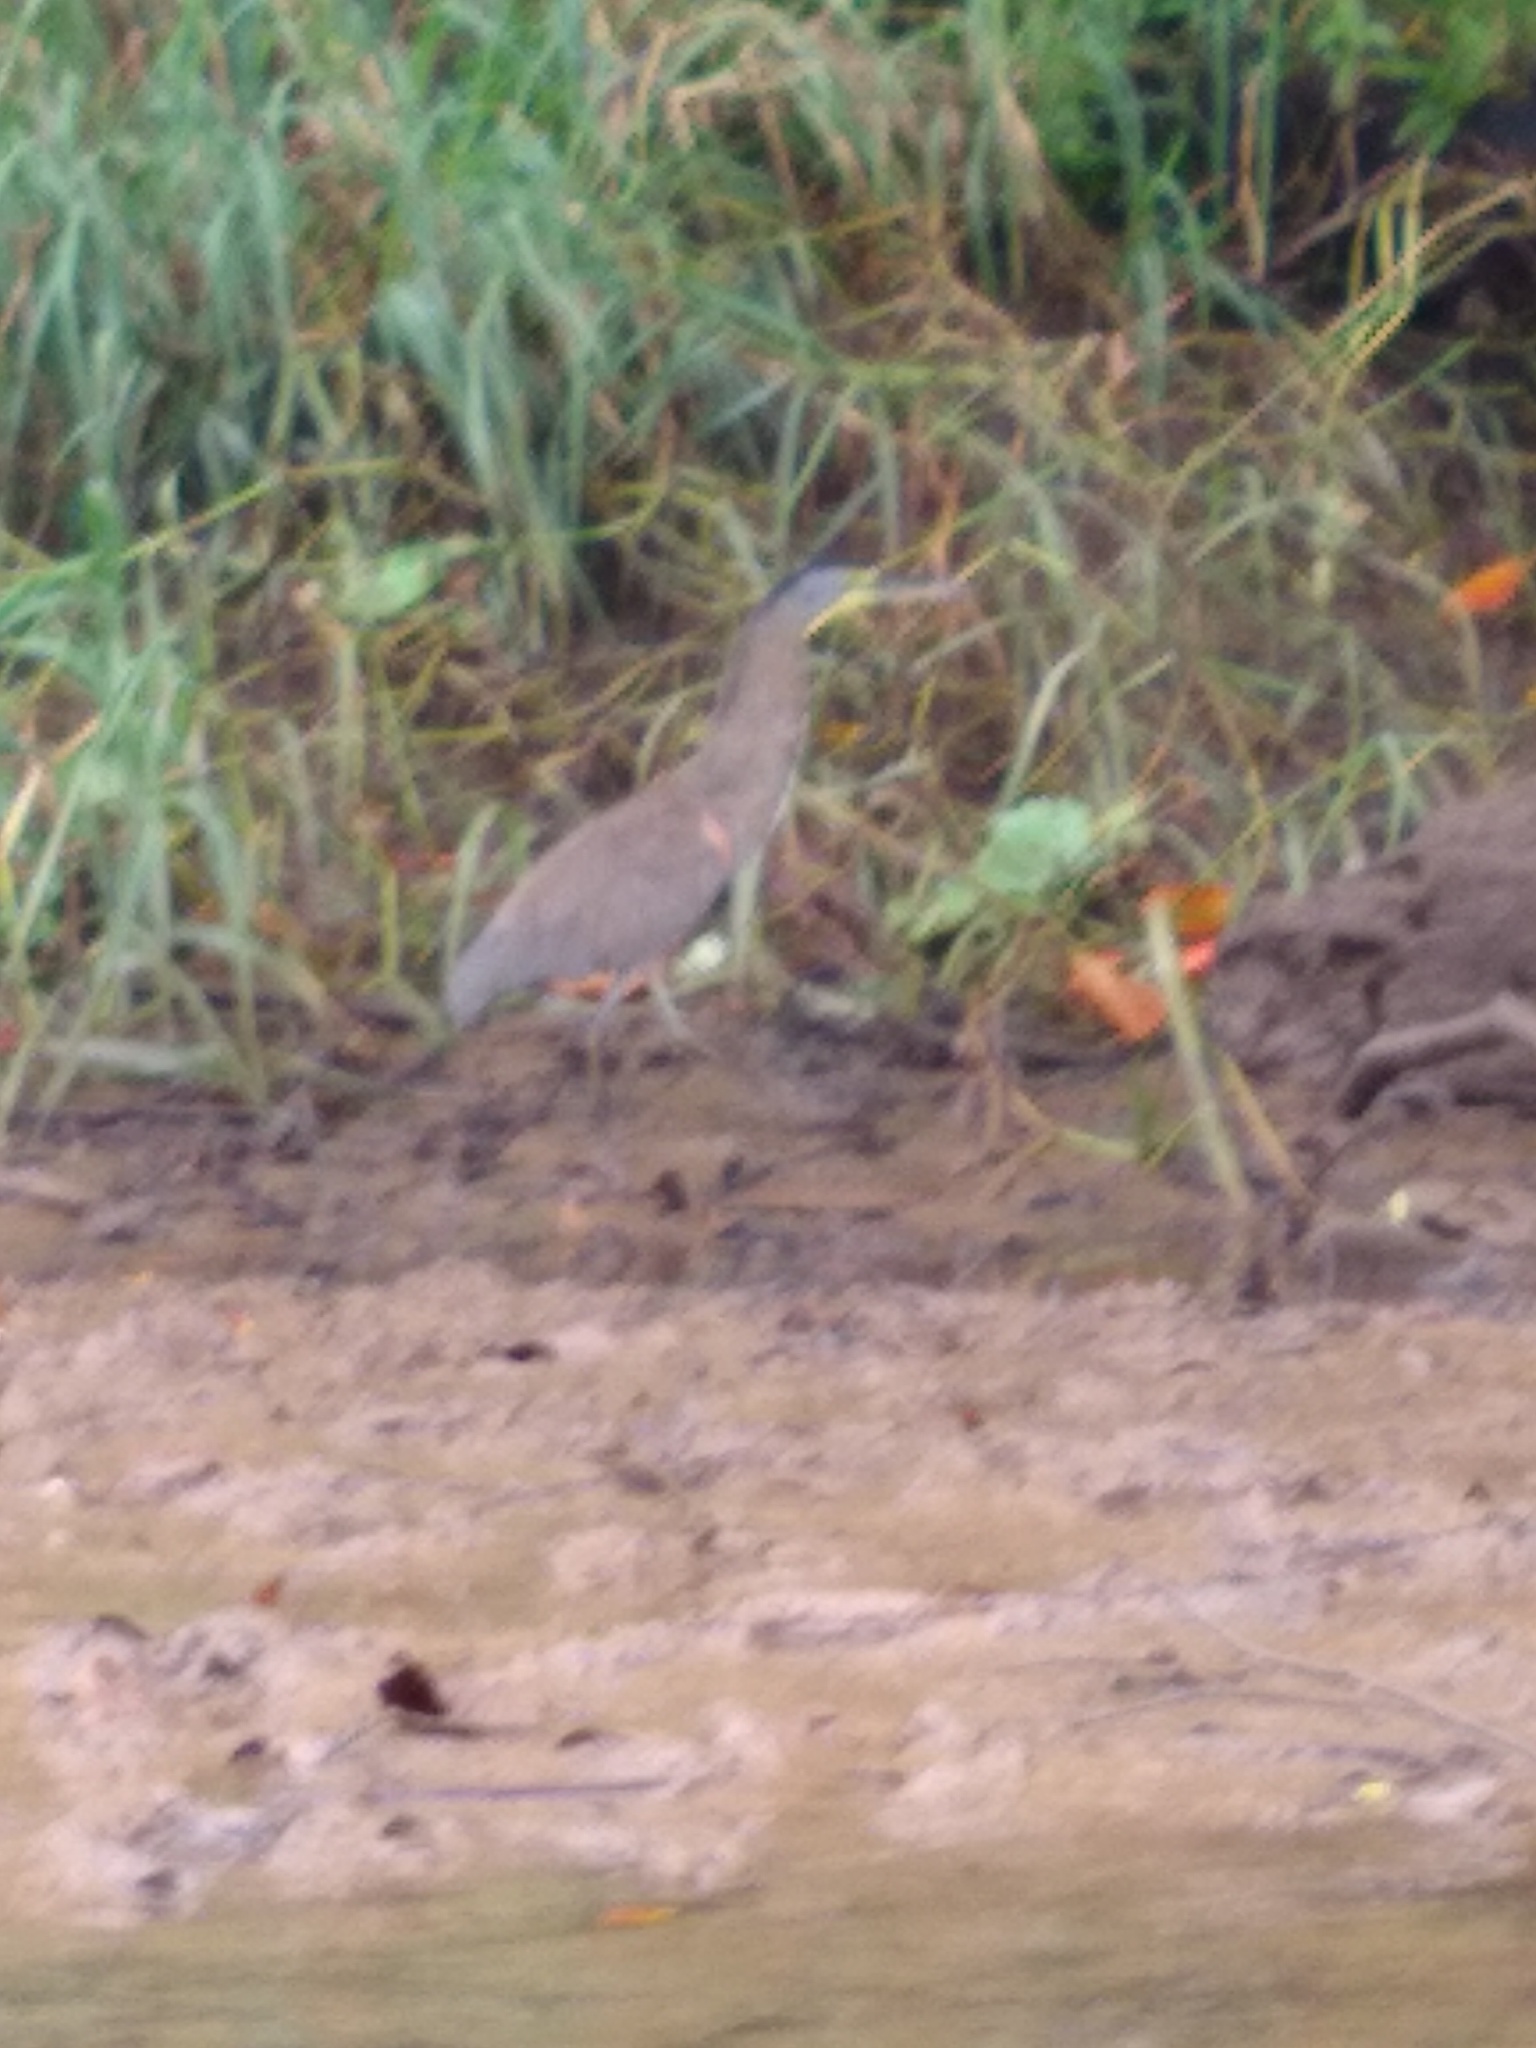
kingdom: Animalia
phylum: Chordata
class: Aves
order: Pelecaniformes
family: Ardeidae
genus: Tigrisoma
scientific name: Tigrisoma mexicanum
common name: Bare-throated tiger-heron
